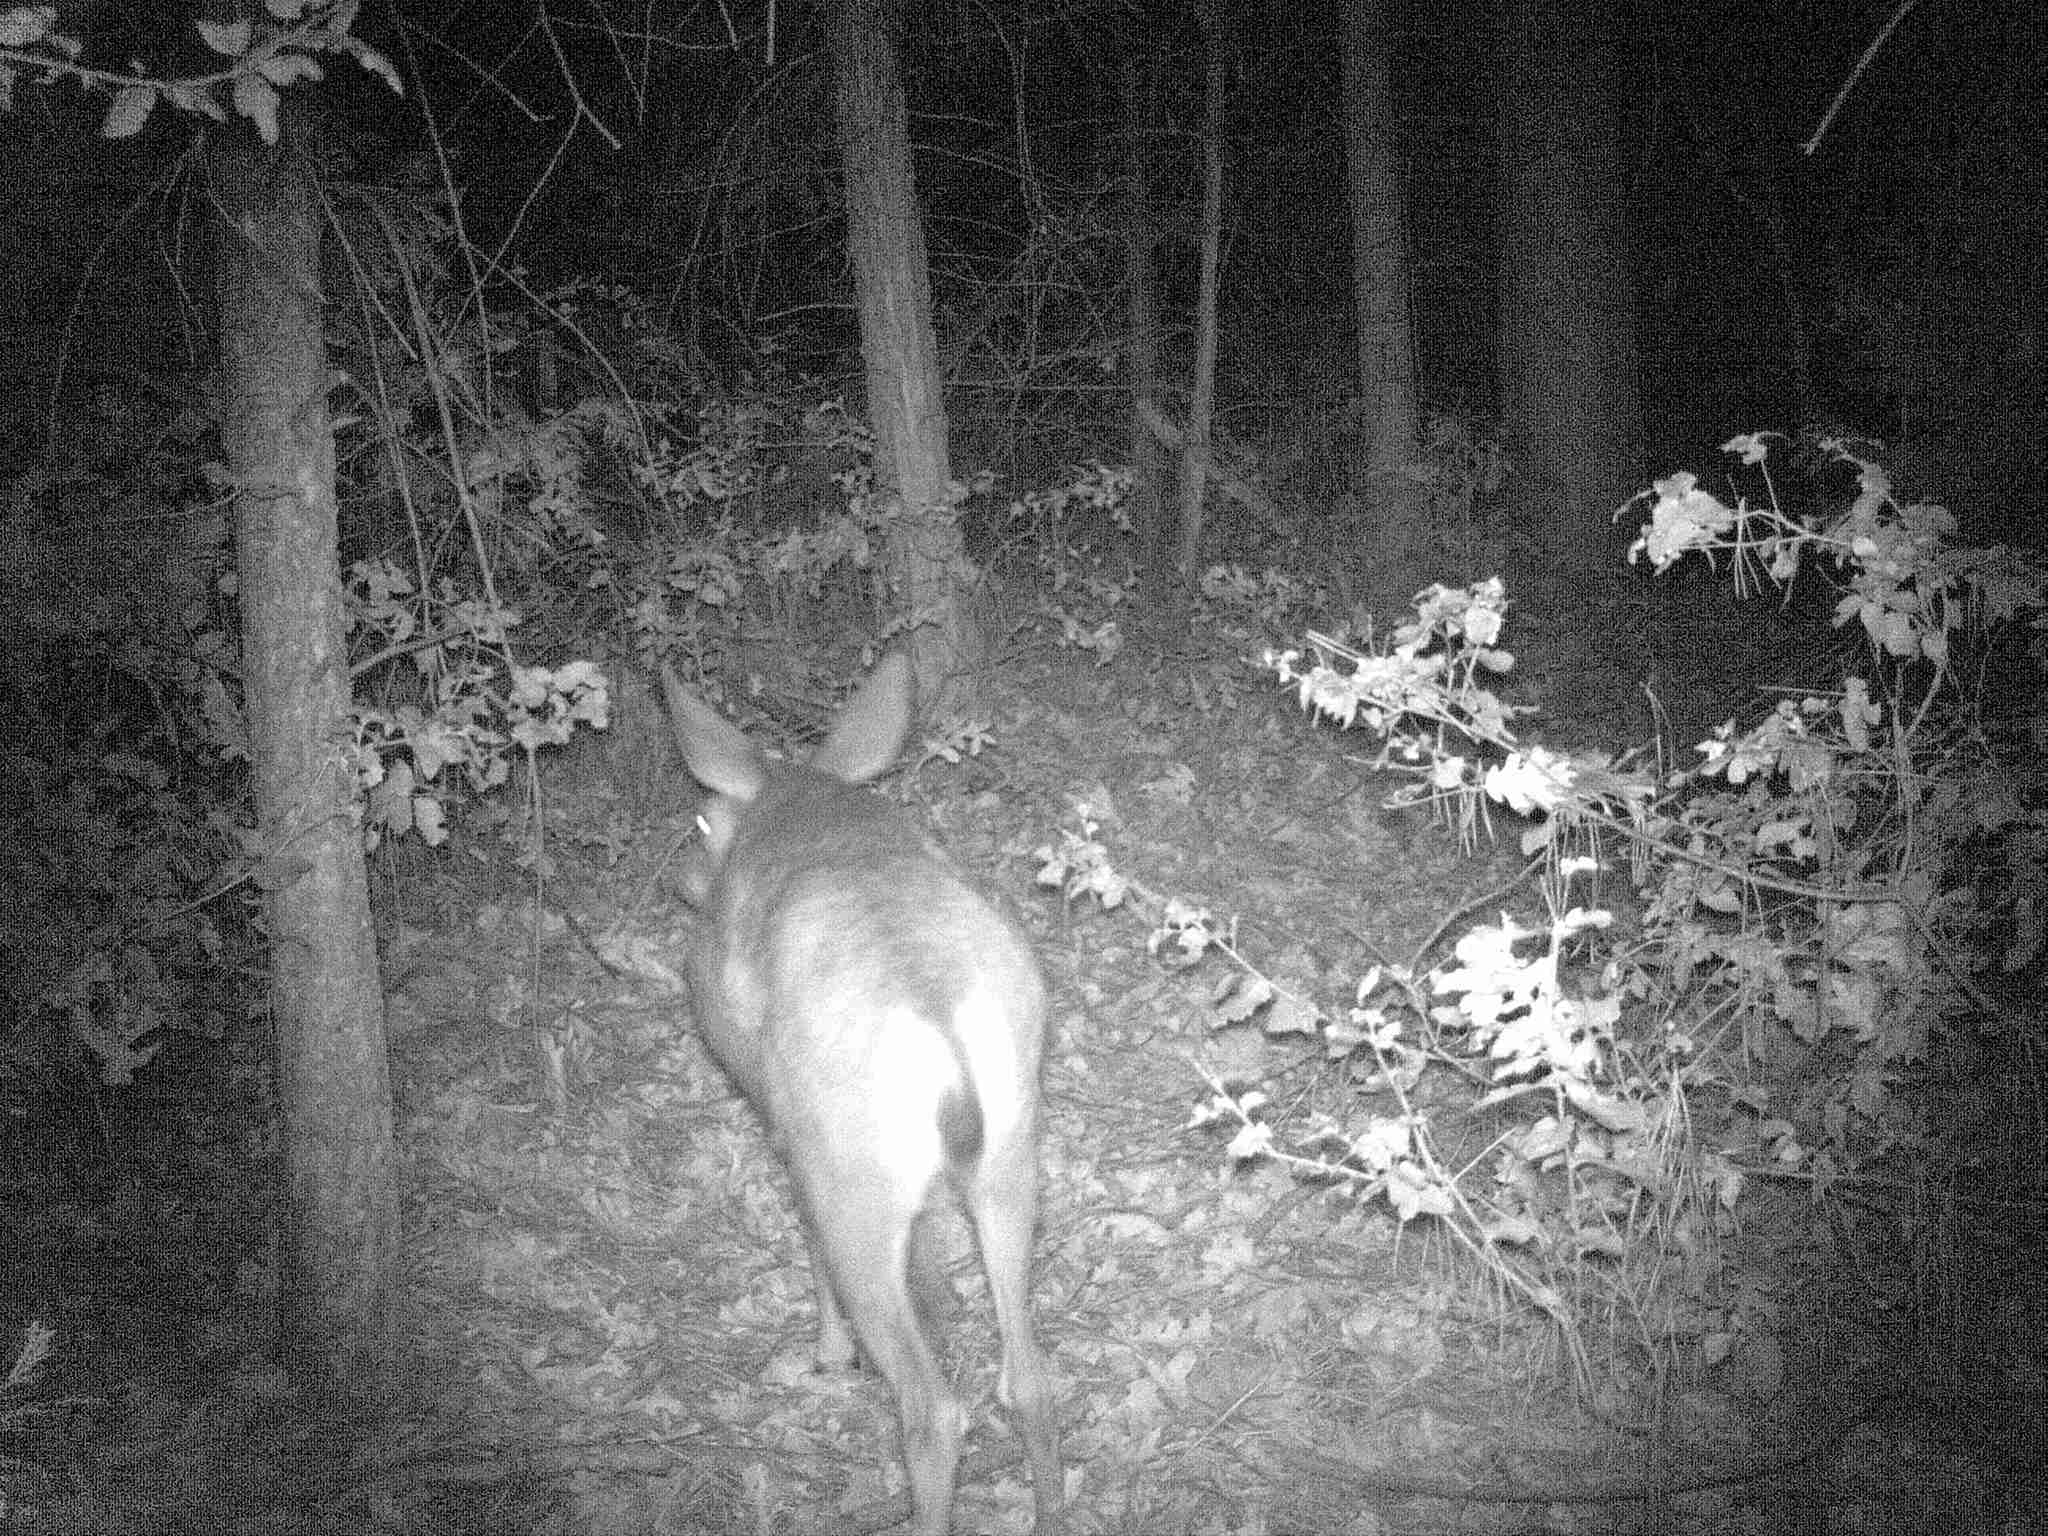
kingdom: Animalia
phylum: Chordata
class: Mammalia
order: Artiodactyla
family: Cervidae
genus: Odocoileus
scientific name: Odocoileus hemionus
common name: Mule deer
